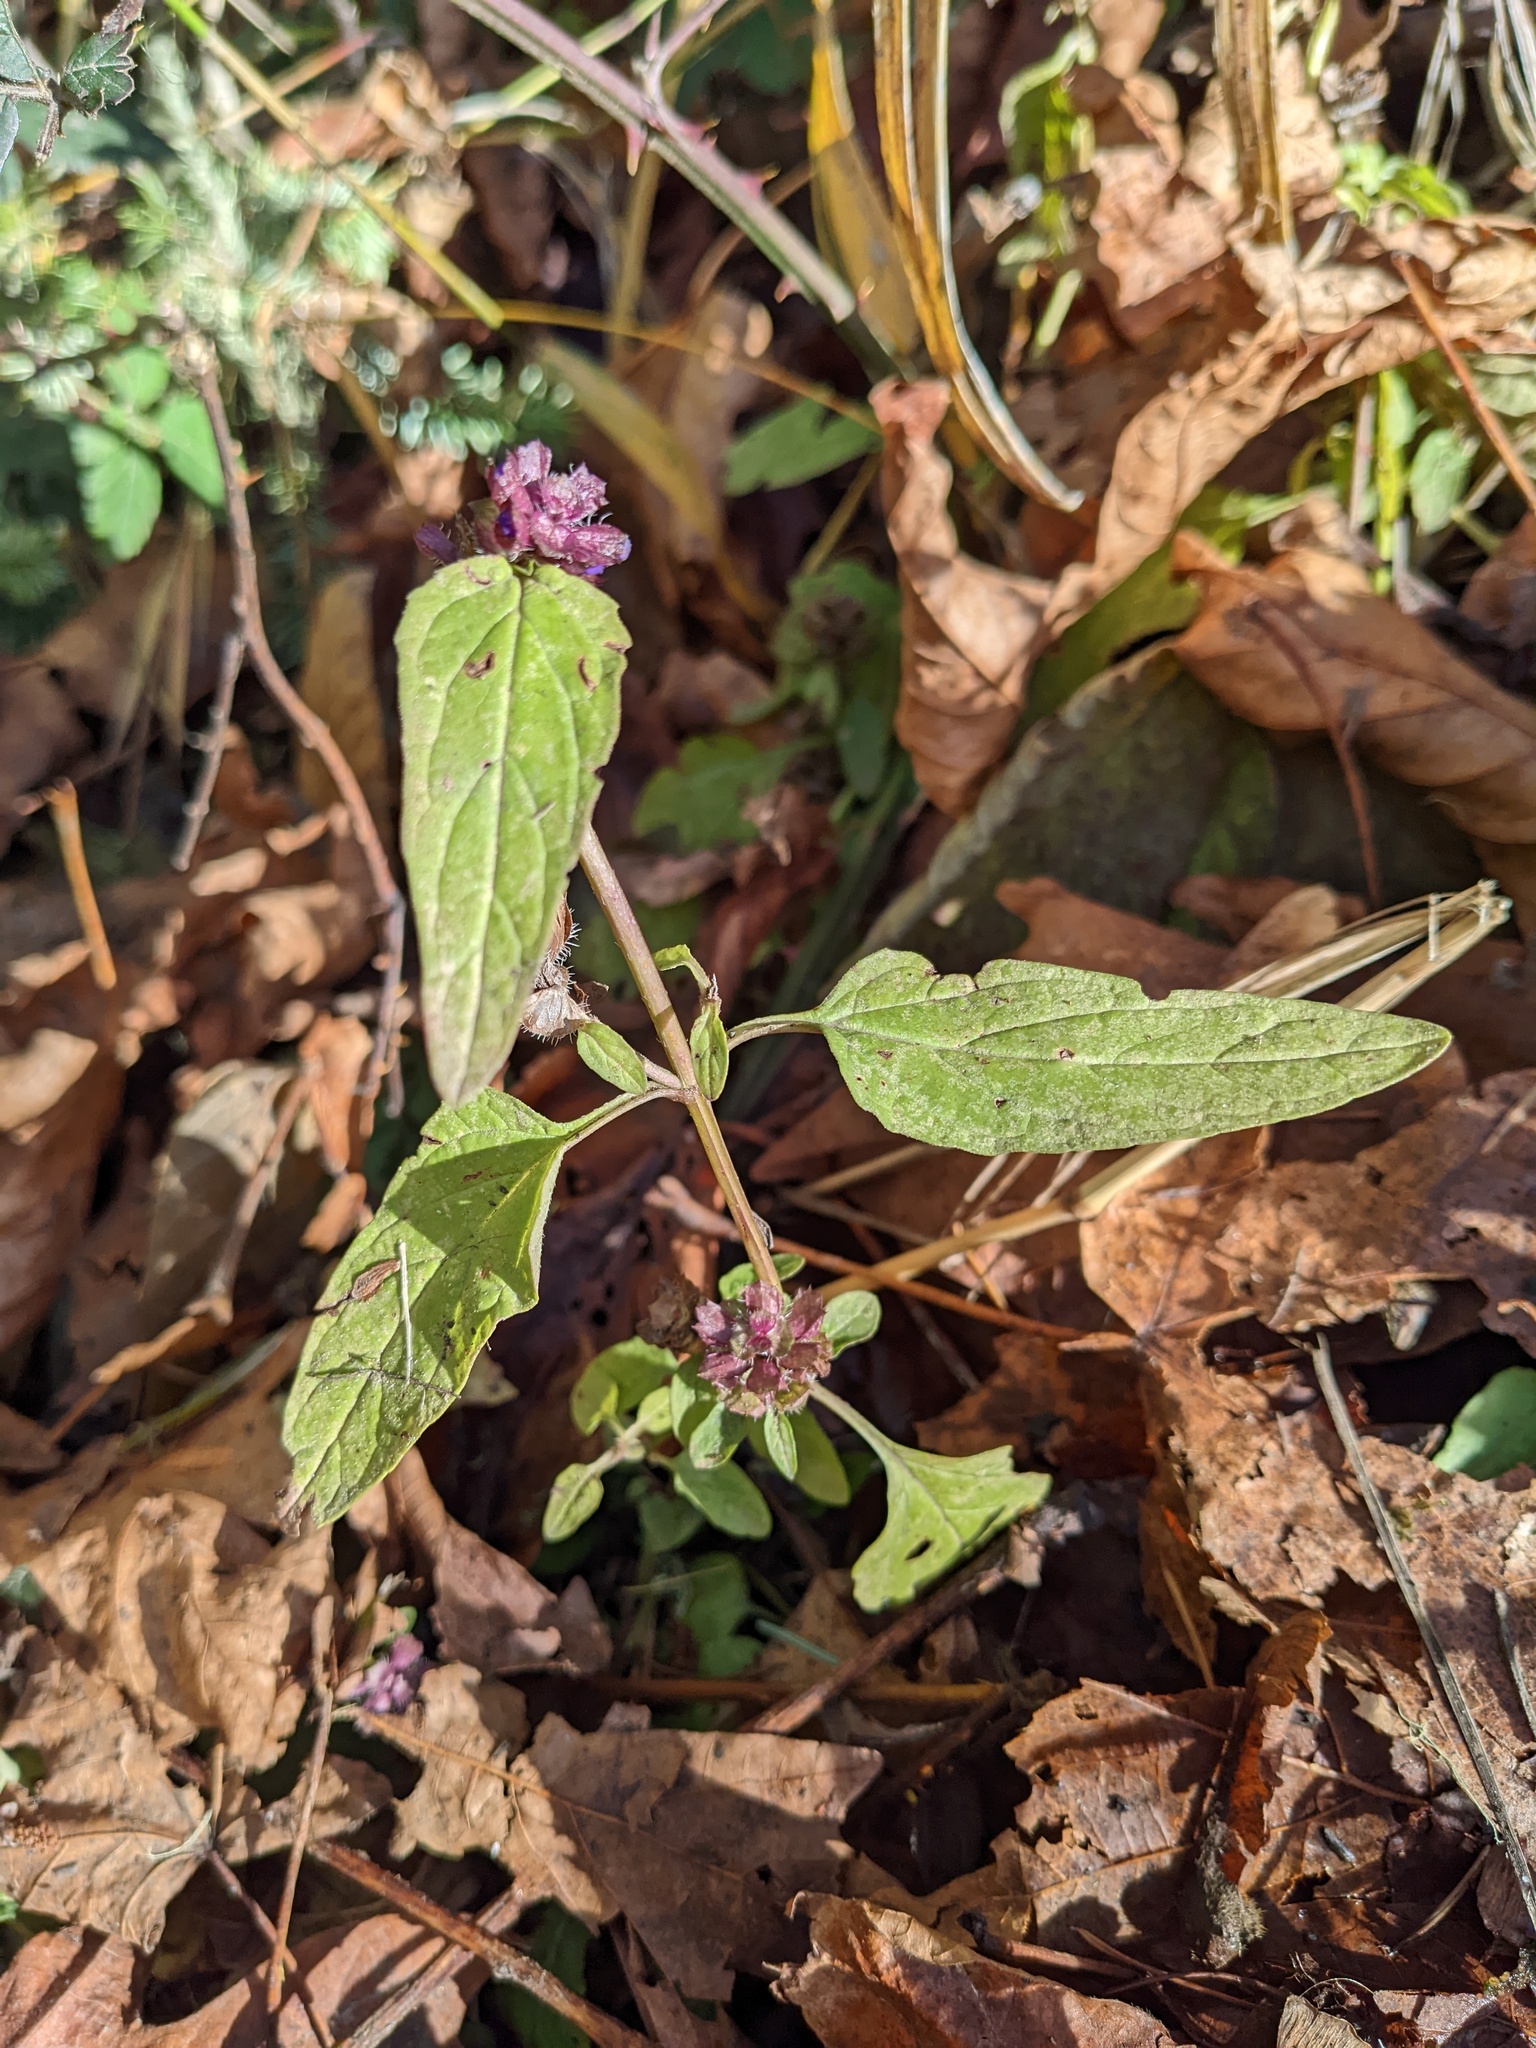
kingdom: Plantae
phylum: Tracheophyta
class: Magnoliopsida
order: Lamiales
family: Lamiaceae
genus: Prunella
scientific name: Prunella vulgaris
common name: Heal-all
